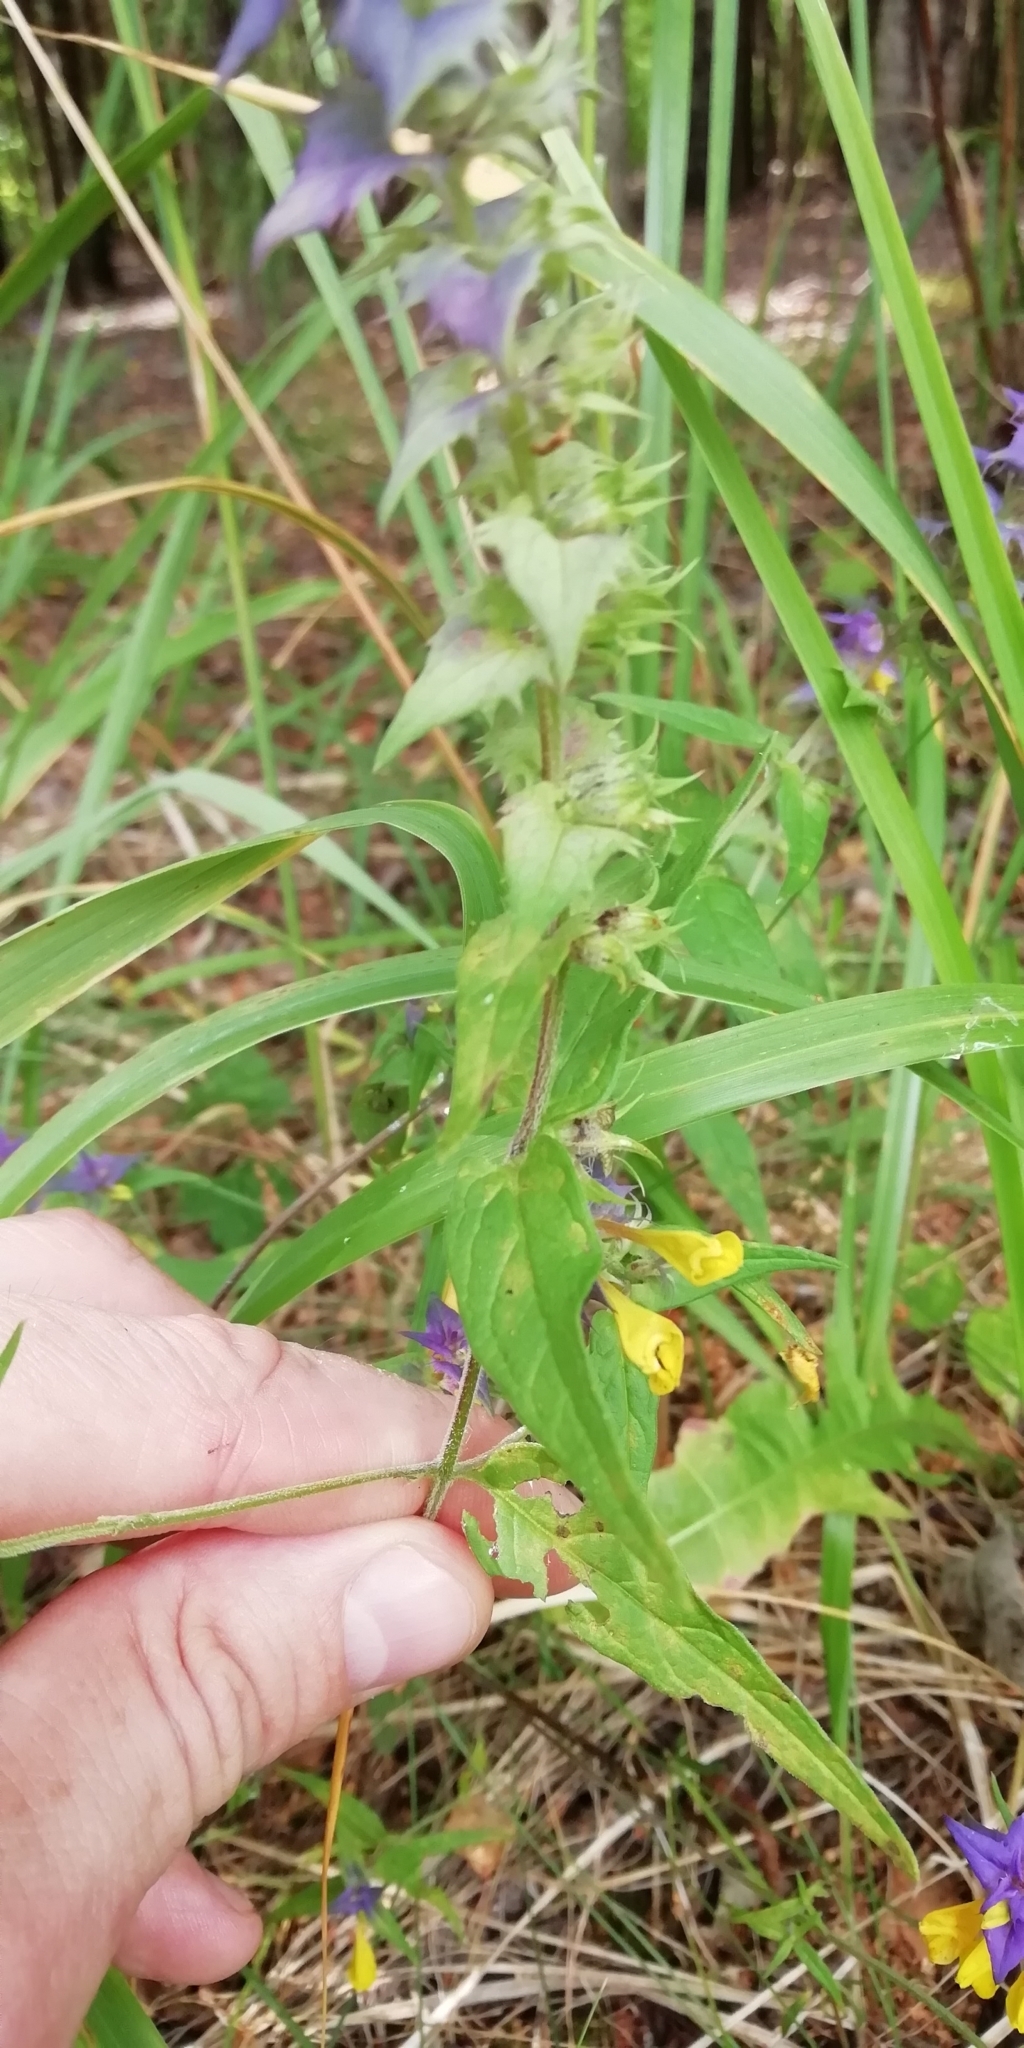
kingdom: Plantae
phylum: Tracheophyta
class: Magnoliopsida
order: Lamiales
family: Orobanchaceae
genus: Melampyrum
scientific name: Melampyrum nemorosum
